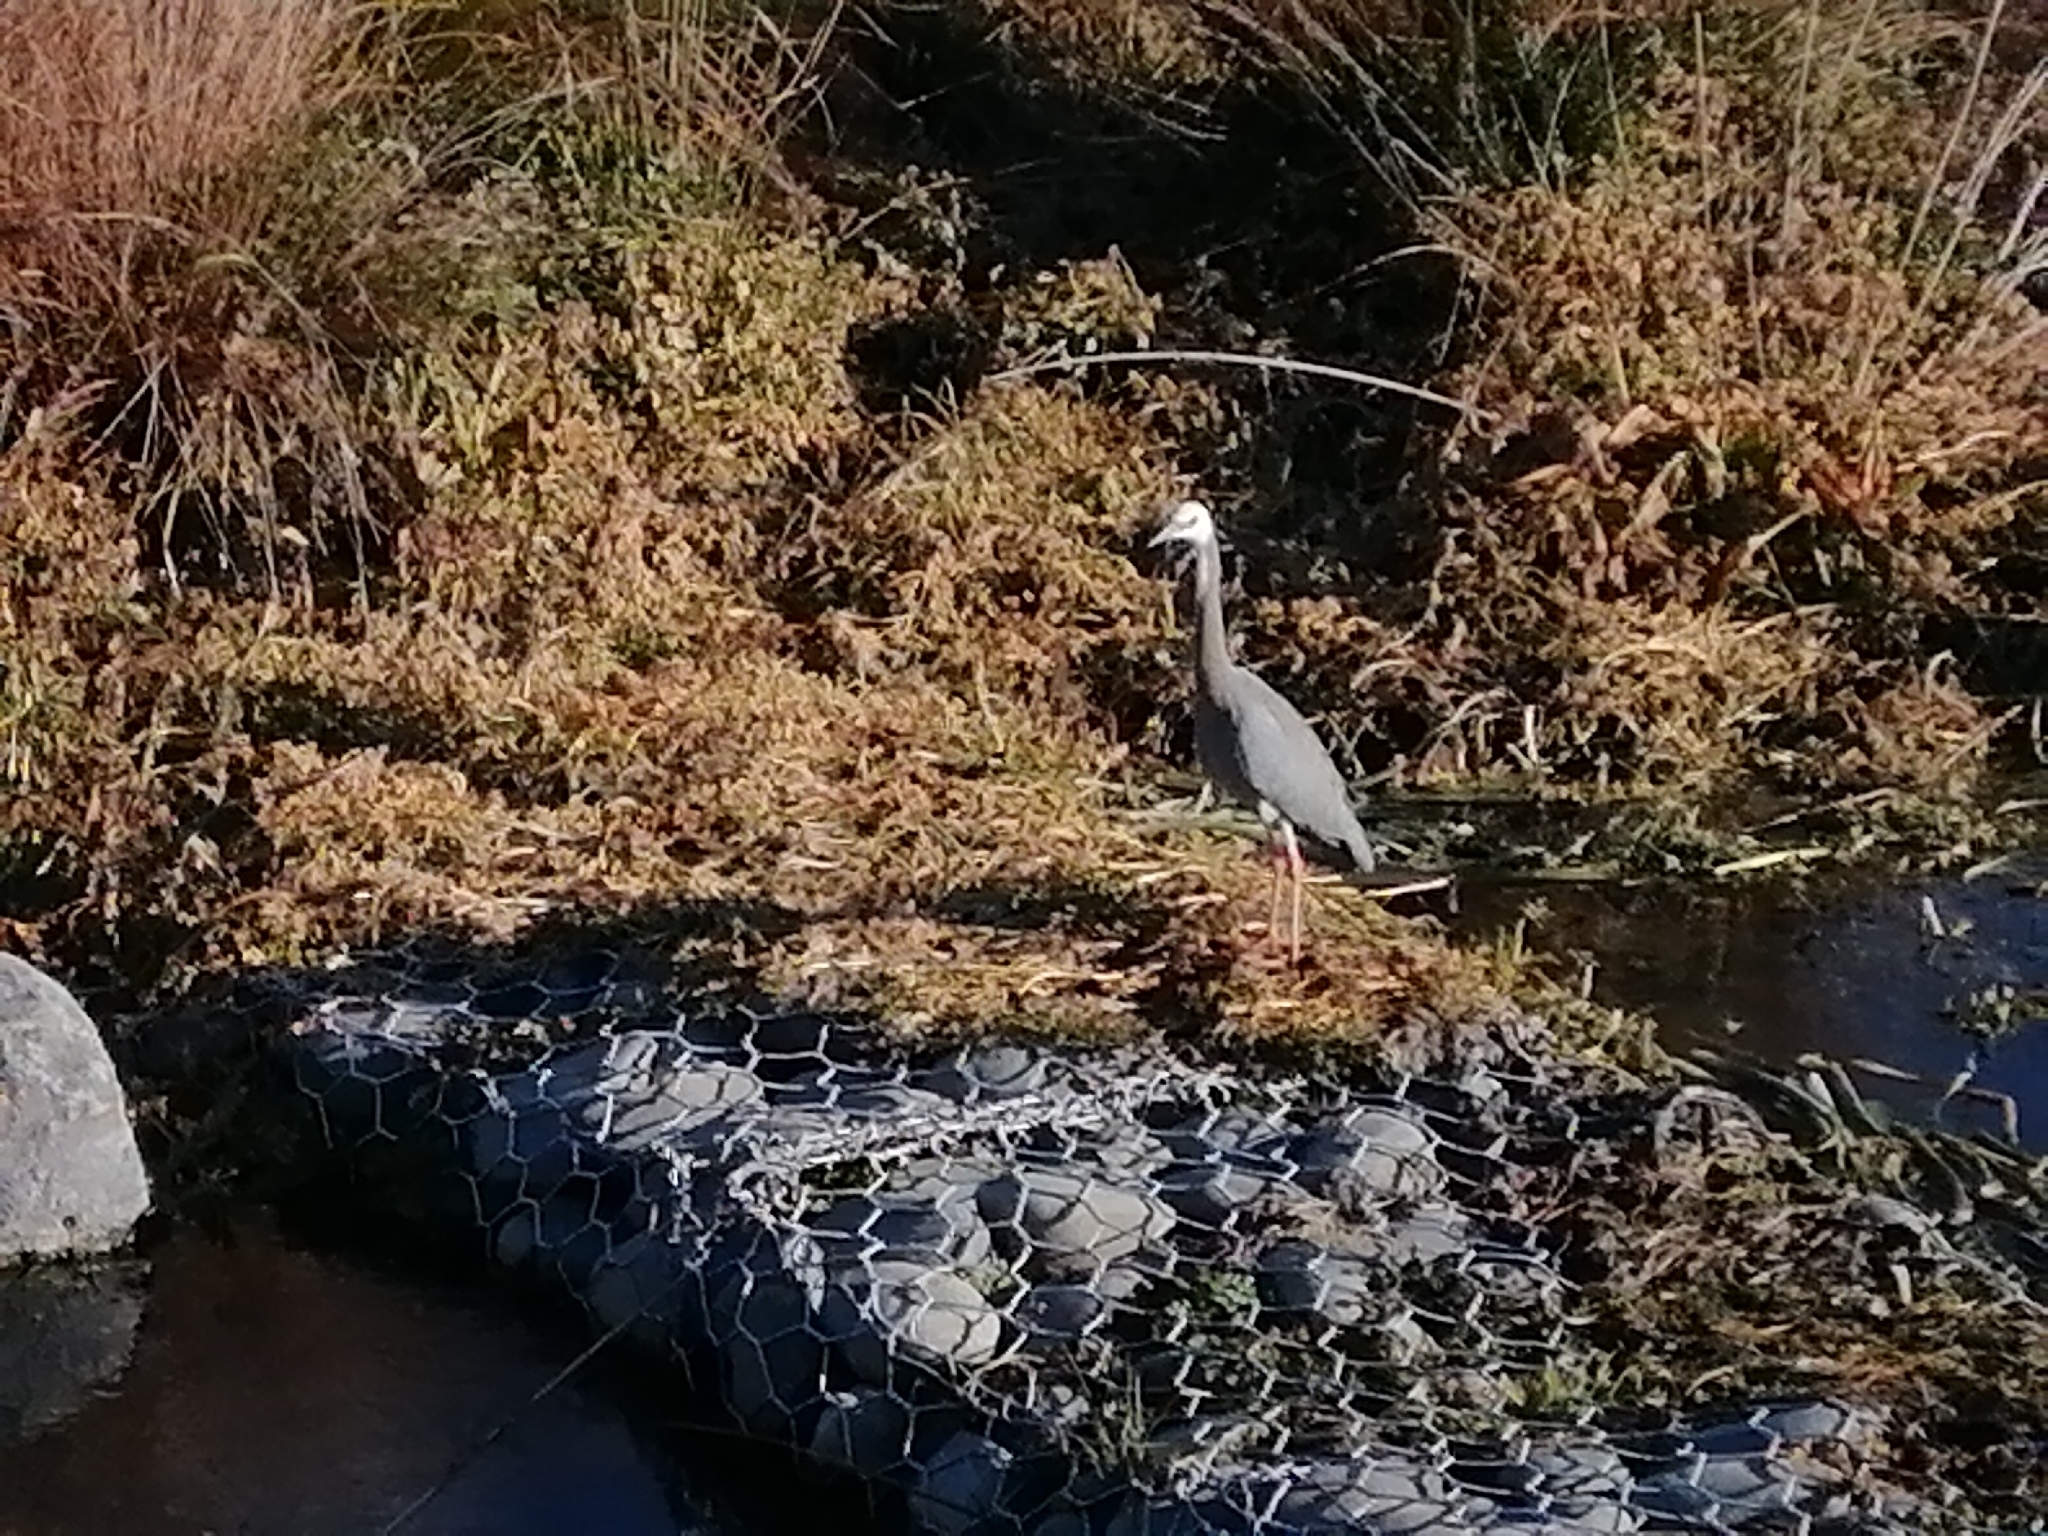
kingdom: Animalia
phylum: Chordata
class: Aves
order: Pelecaniformes
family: Ardeidae
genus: Egretta
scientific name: Egretta novaehollandiae
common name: White-faced heron
